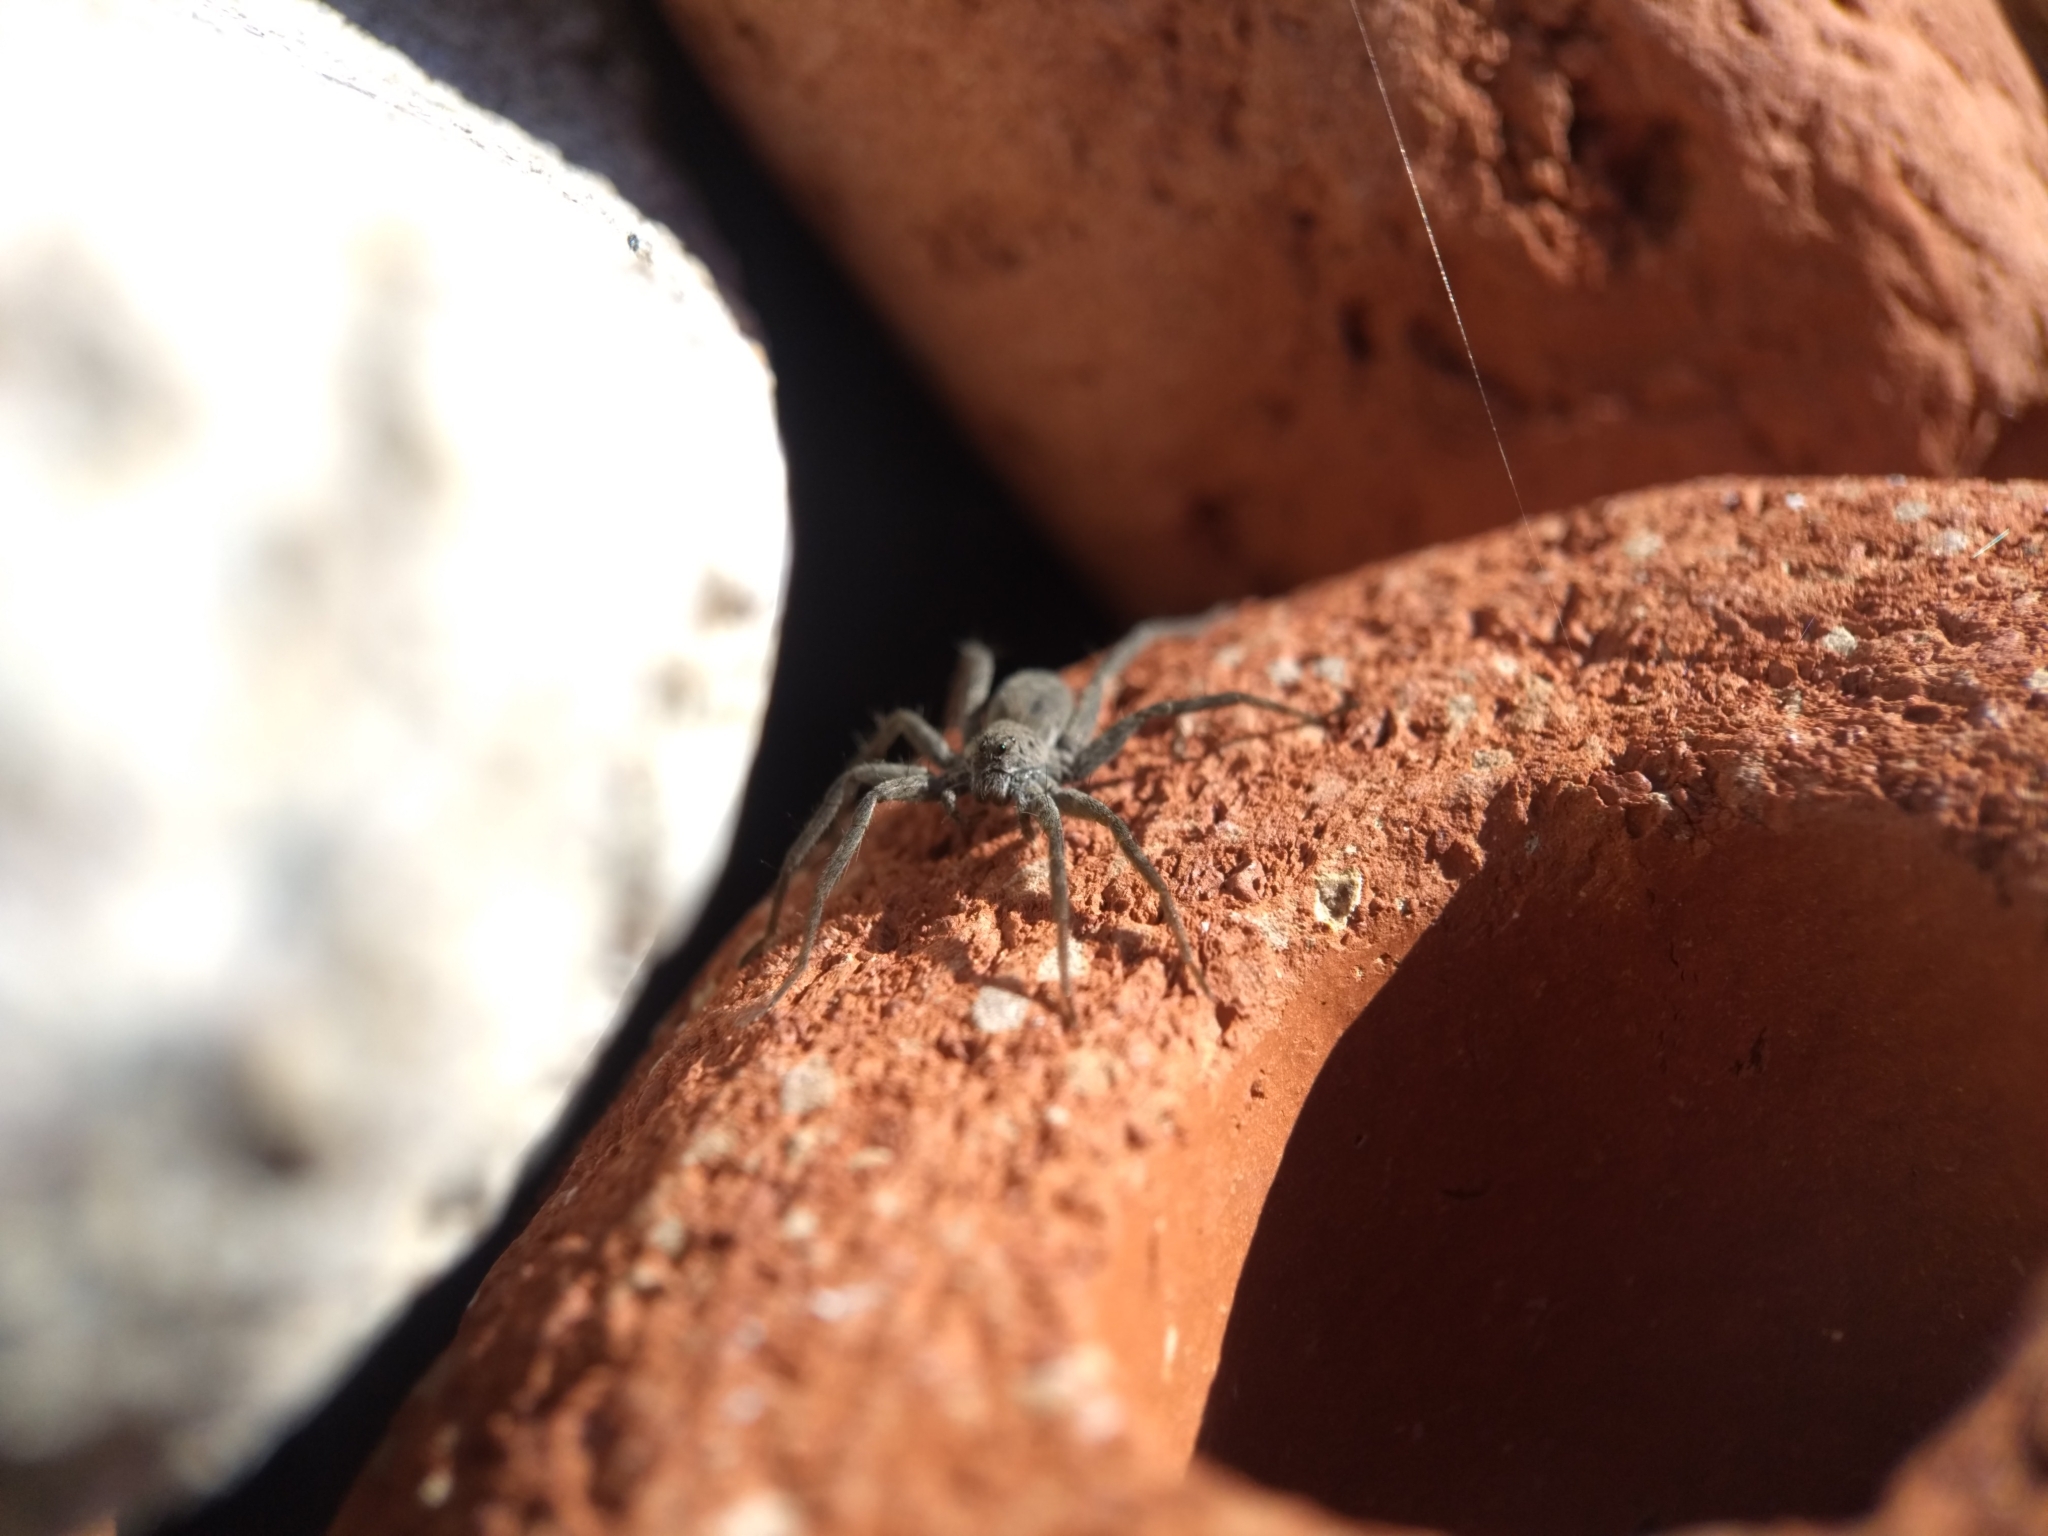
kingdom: Animalia
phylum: Arthropoda
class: Arachnida
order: Araneae
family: Lycosidae
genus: Pardosa
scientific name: Pardosa lapidicina
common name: Stone spider
